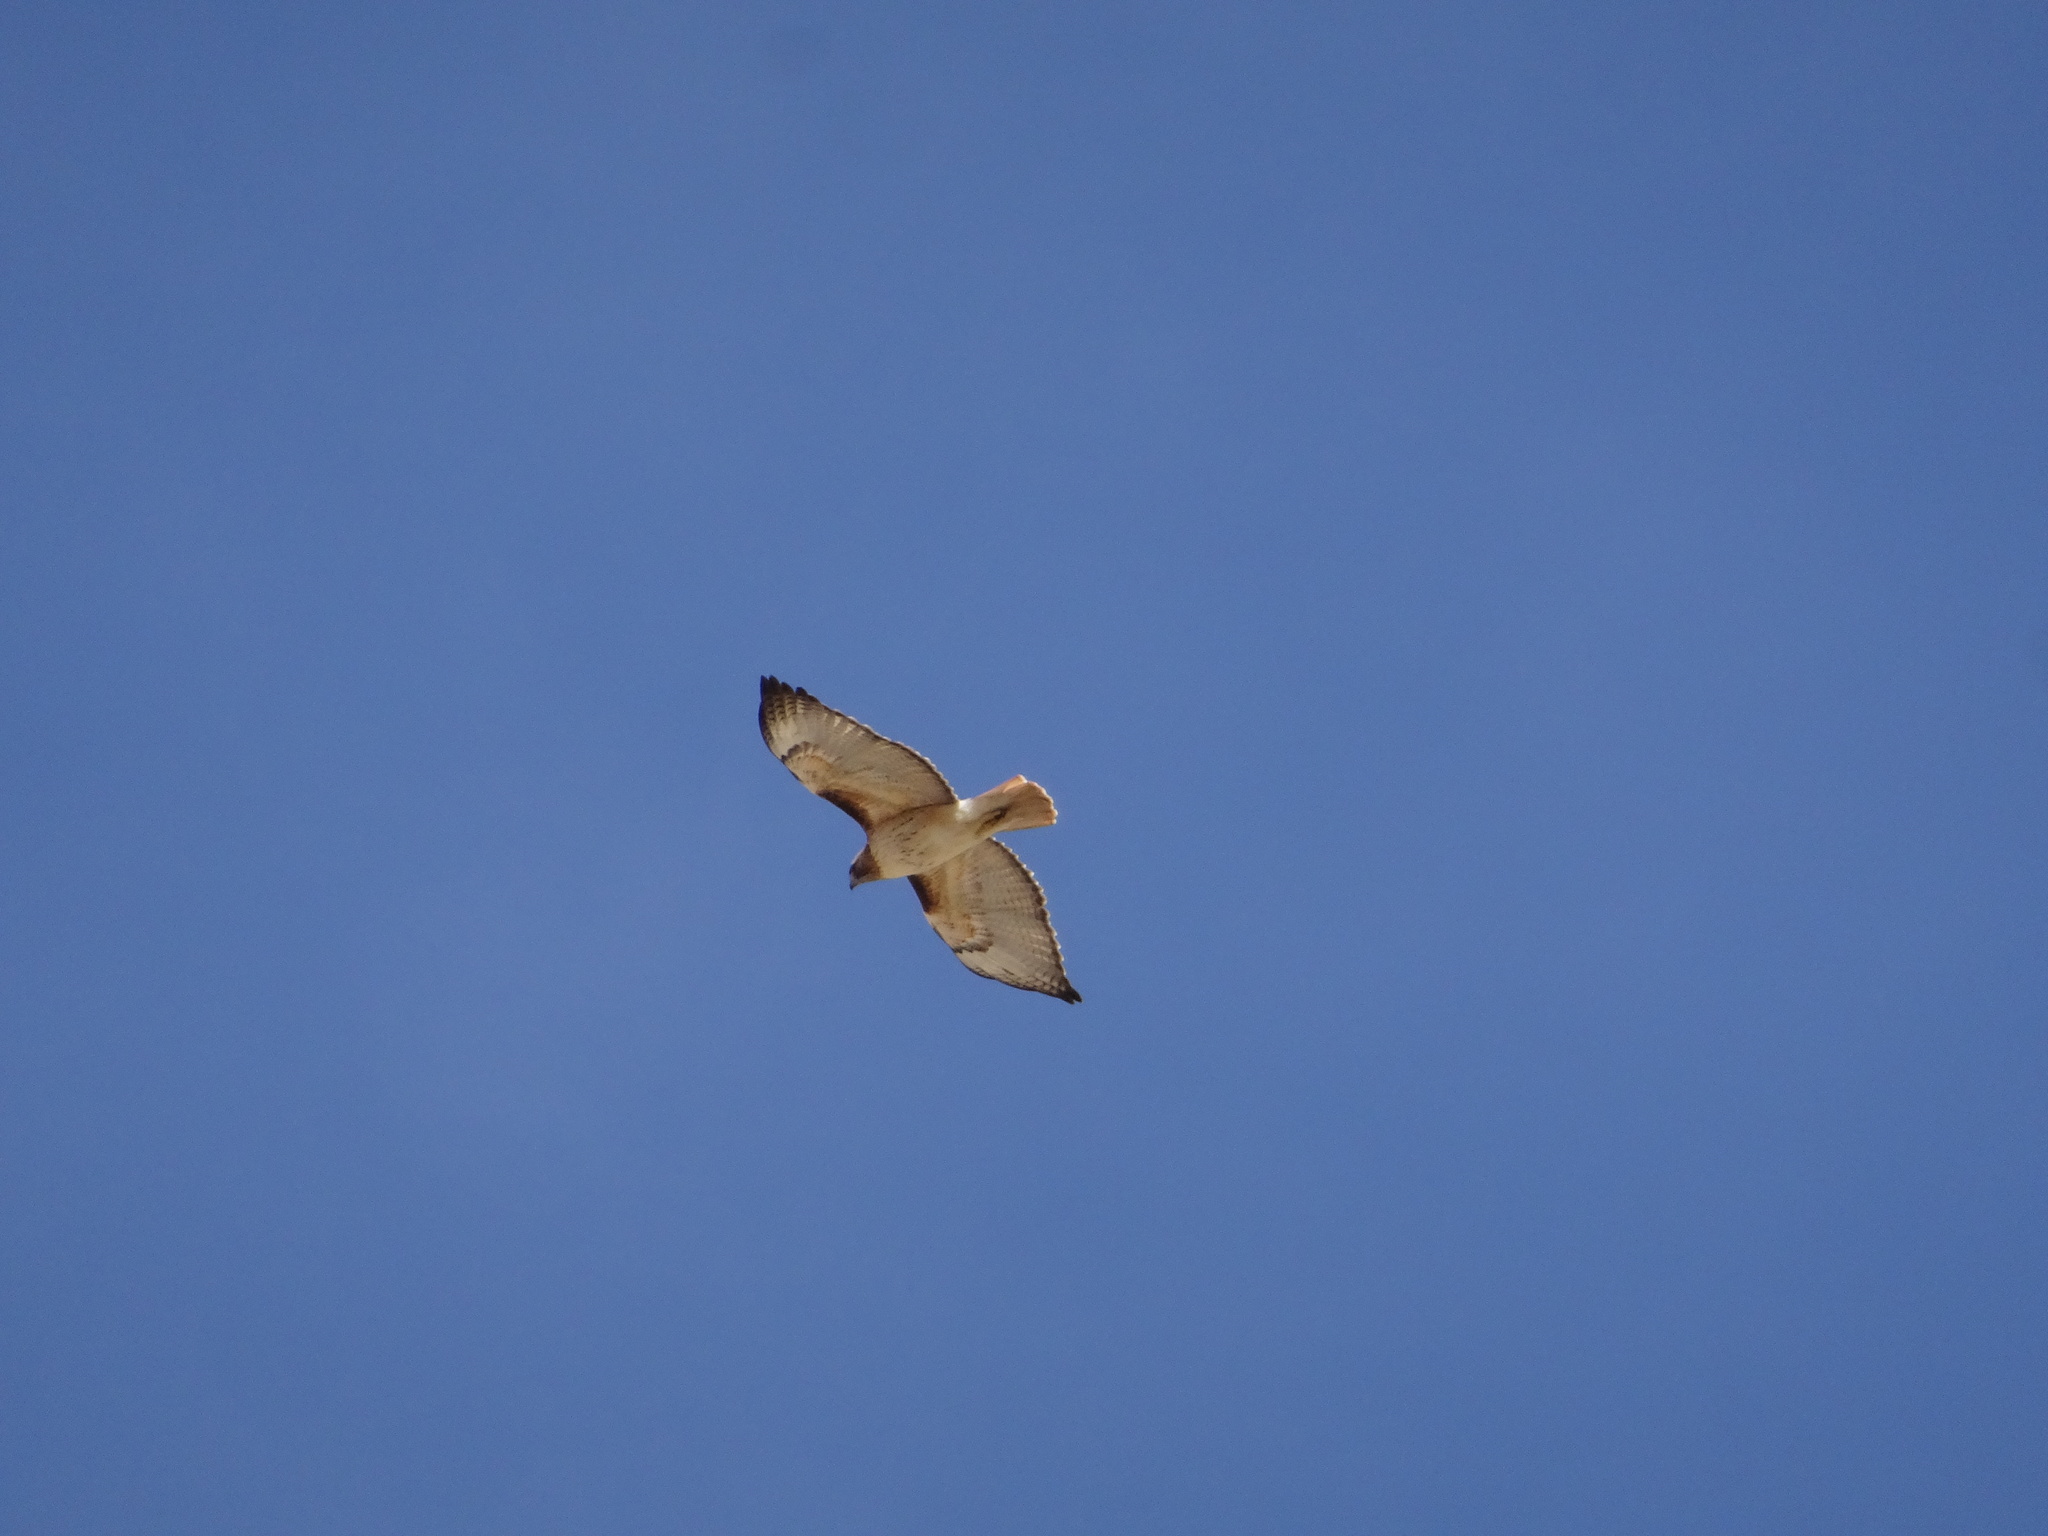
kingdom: Animalia
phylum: Chordata
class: Aves
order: Accipitriformes
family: Accipitridae
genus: Buteo
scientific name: Buteo jamaicensis
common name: Red-tailed hawk
